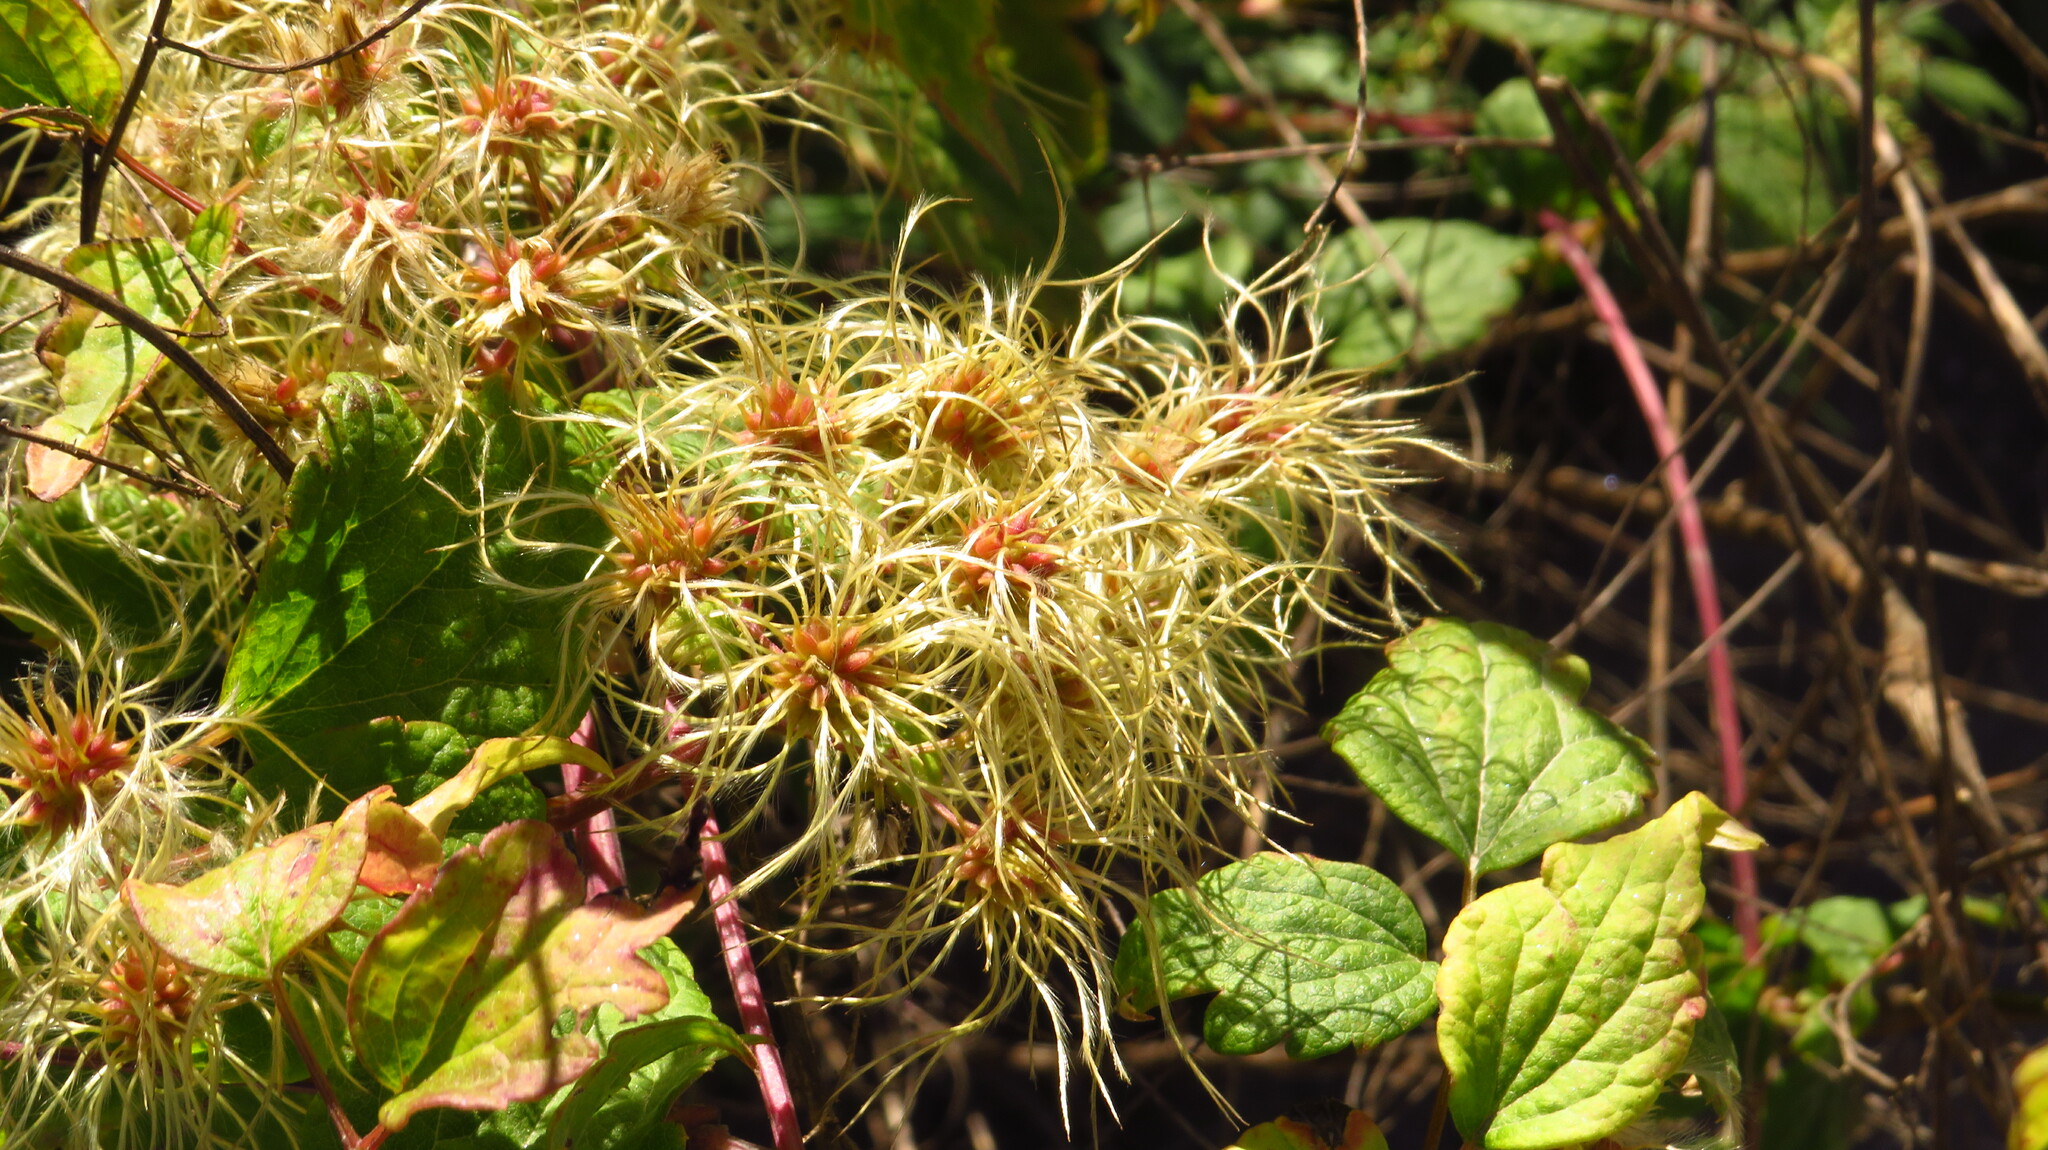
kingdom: Plantae
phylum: Tracheophyta
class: Magnoliopsida
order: Ranunculales
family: Ranunculaceae
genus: Clematis
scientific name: Clematis virginiana
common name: Virgin's-bower
